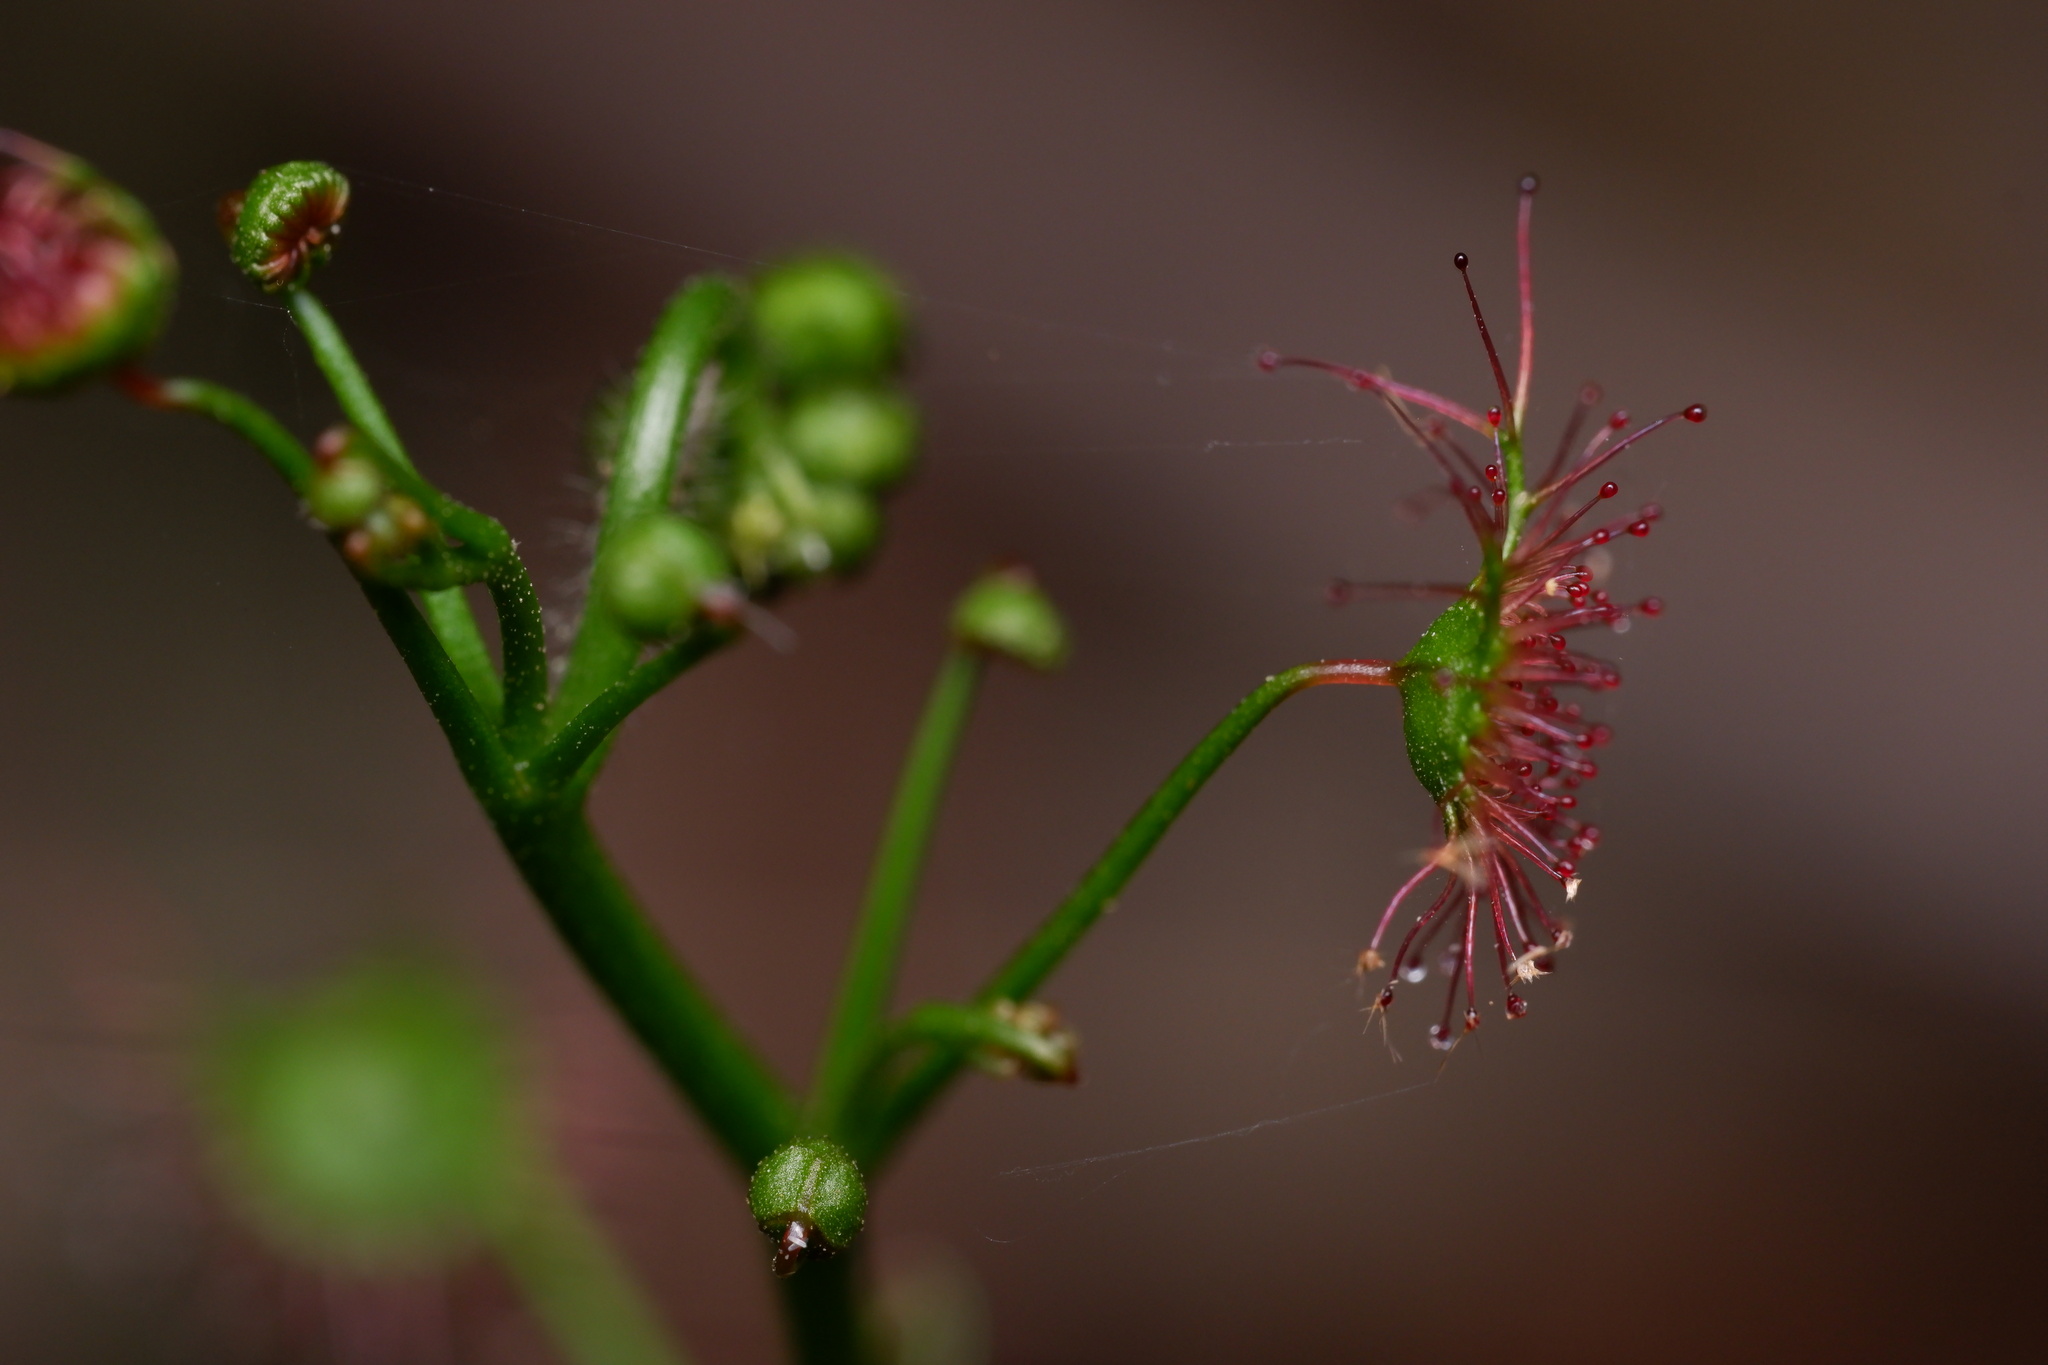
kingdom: Plantae
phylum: Tracheophyta
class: Magnoliopsida
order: Caryophyllales
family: Droseraceae
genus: Drosera
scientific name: Drosera peltata
